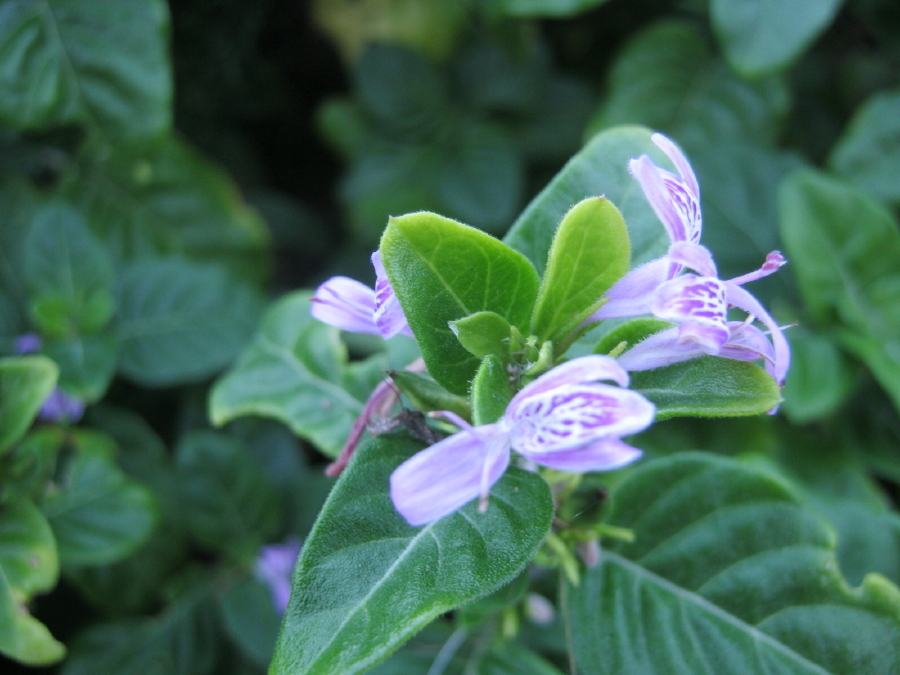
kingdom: Plantae
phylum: Tracheophyta
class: Magnoliopsida
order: Lamiales
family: Acanthaceae
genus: Hypoestes
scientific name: Hypoestes aristata
